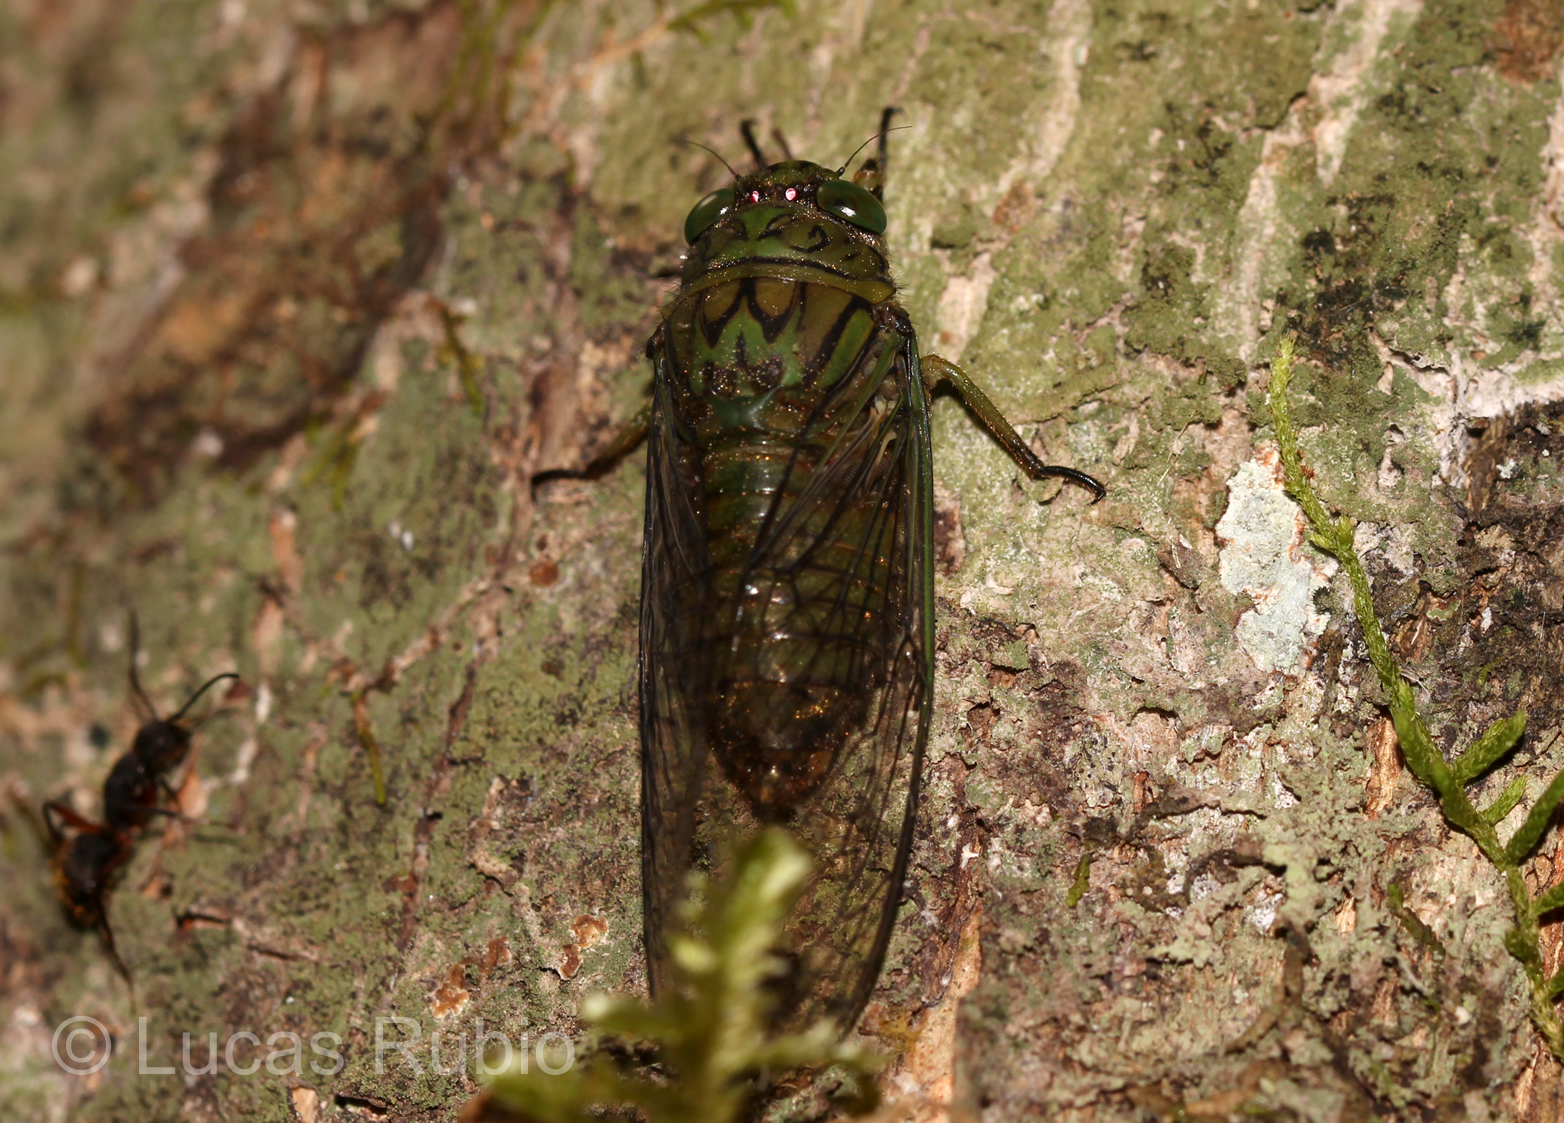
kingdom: Animalia
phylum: Arthropoda
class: Insecta
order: Hemiptera
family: Cicadidae
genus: Carineta
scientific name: Carineta bilineosa
